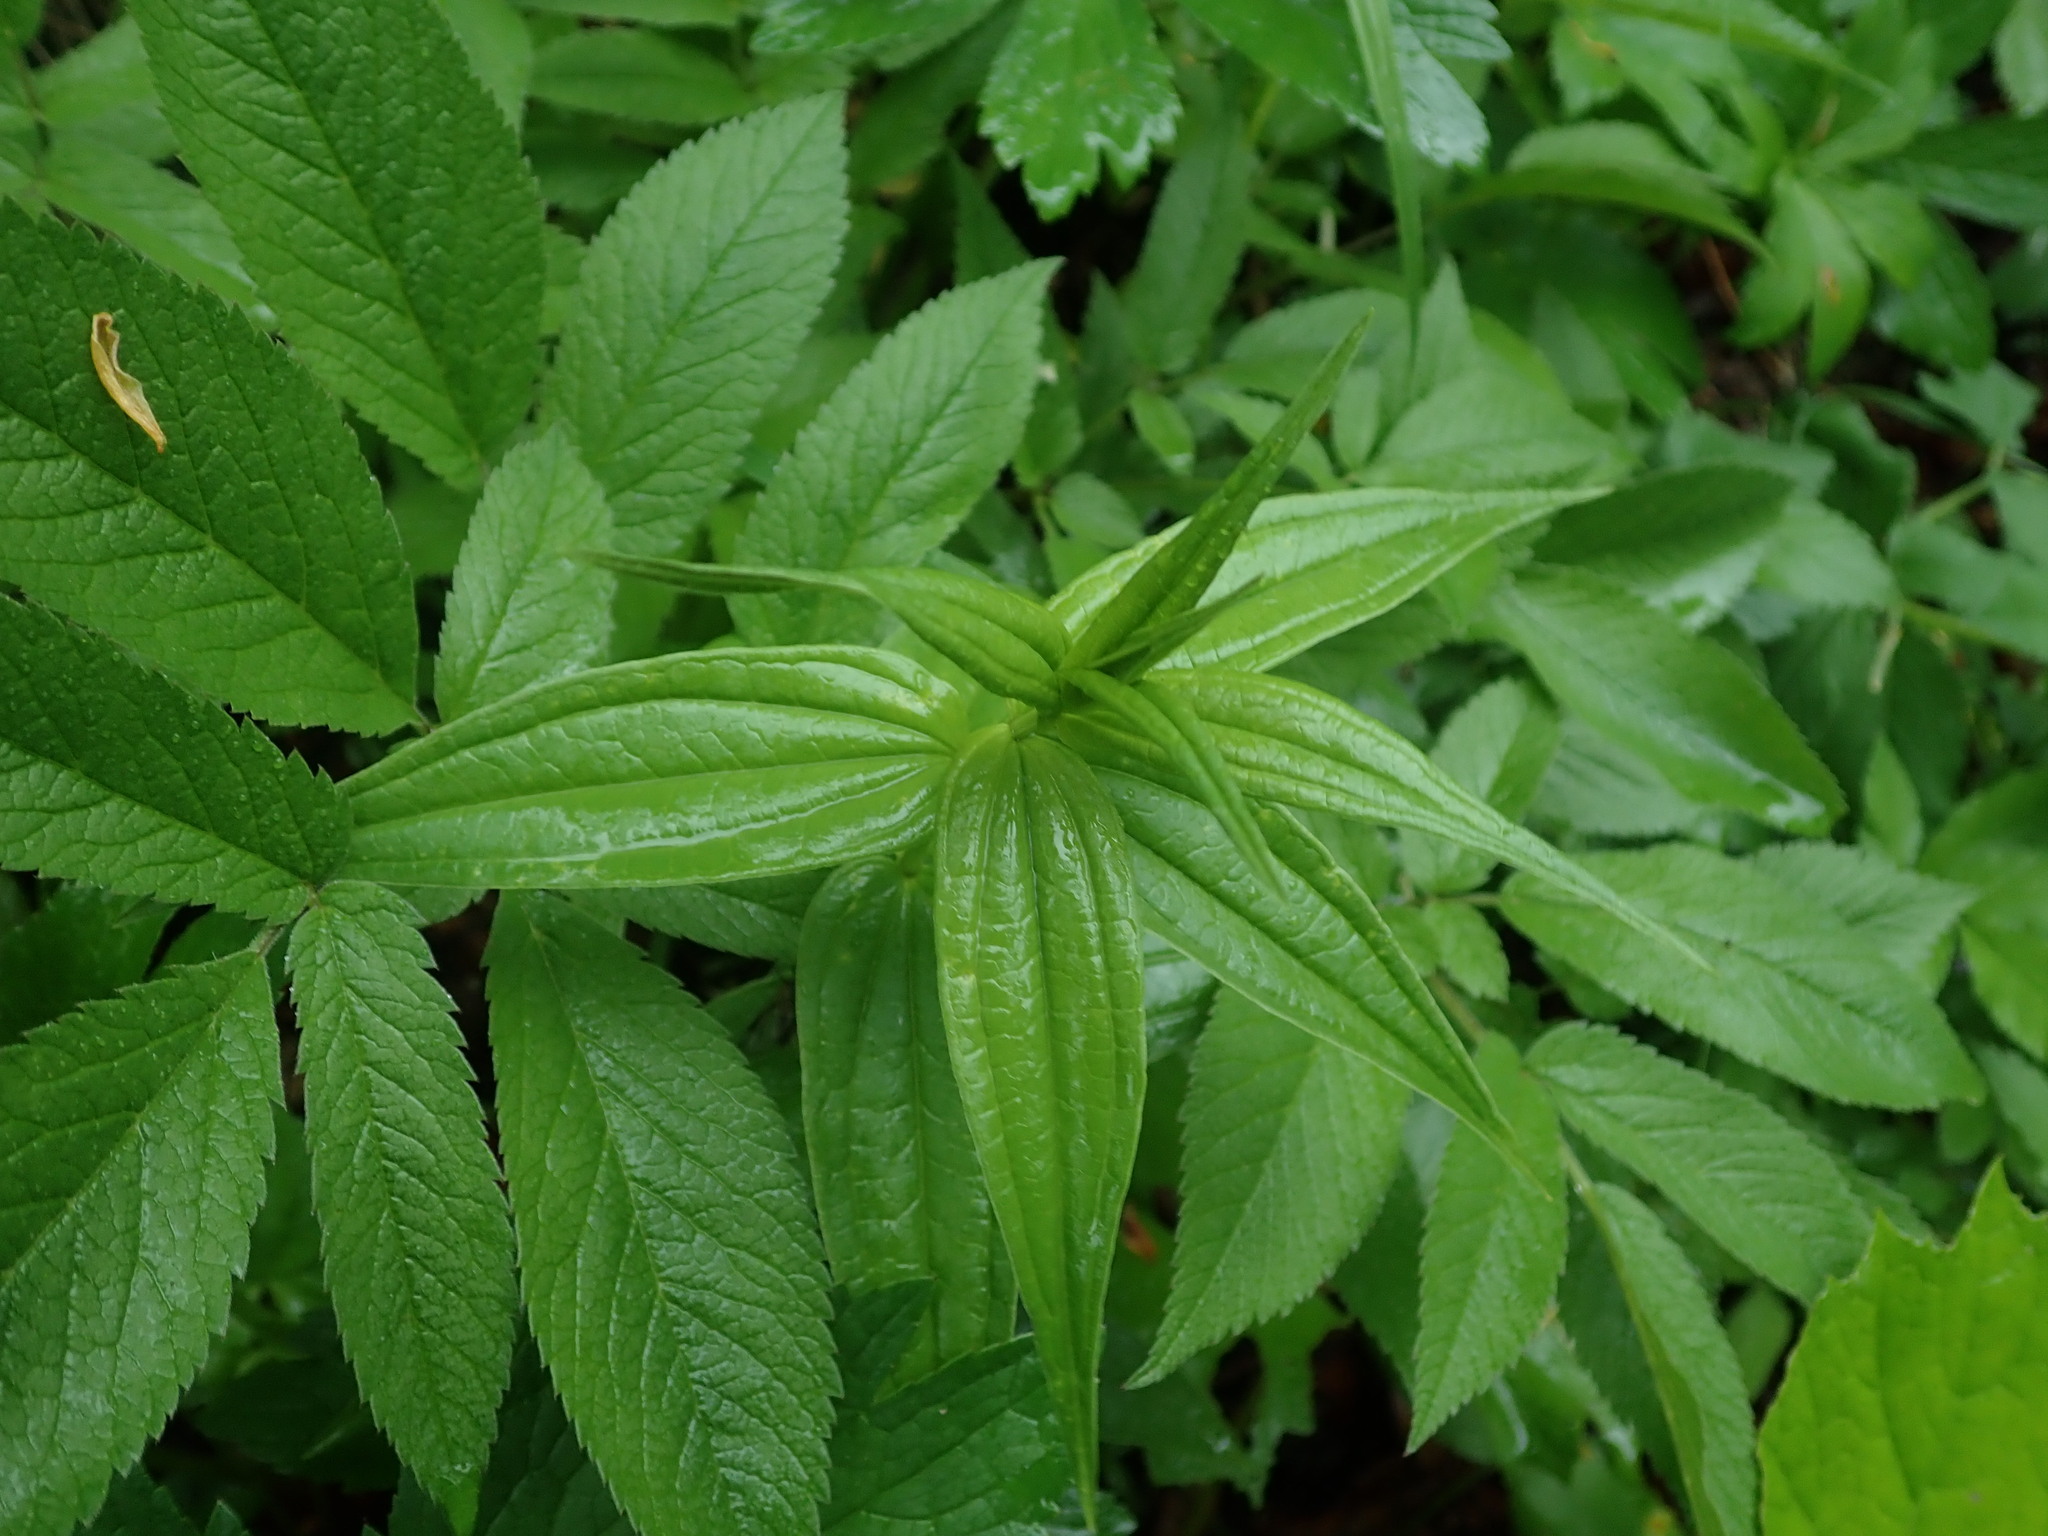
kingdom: Plantae
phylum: Tracheophyta
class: Magnoliopsida
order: Gentianales
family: Gentianaceae
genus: Gentiana
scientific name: Gentiana asclepiadea
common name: Willow gentian
